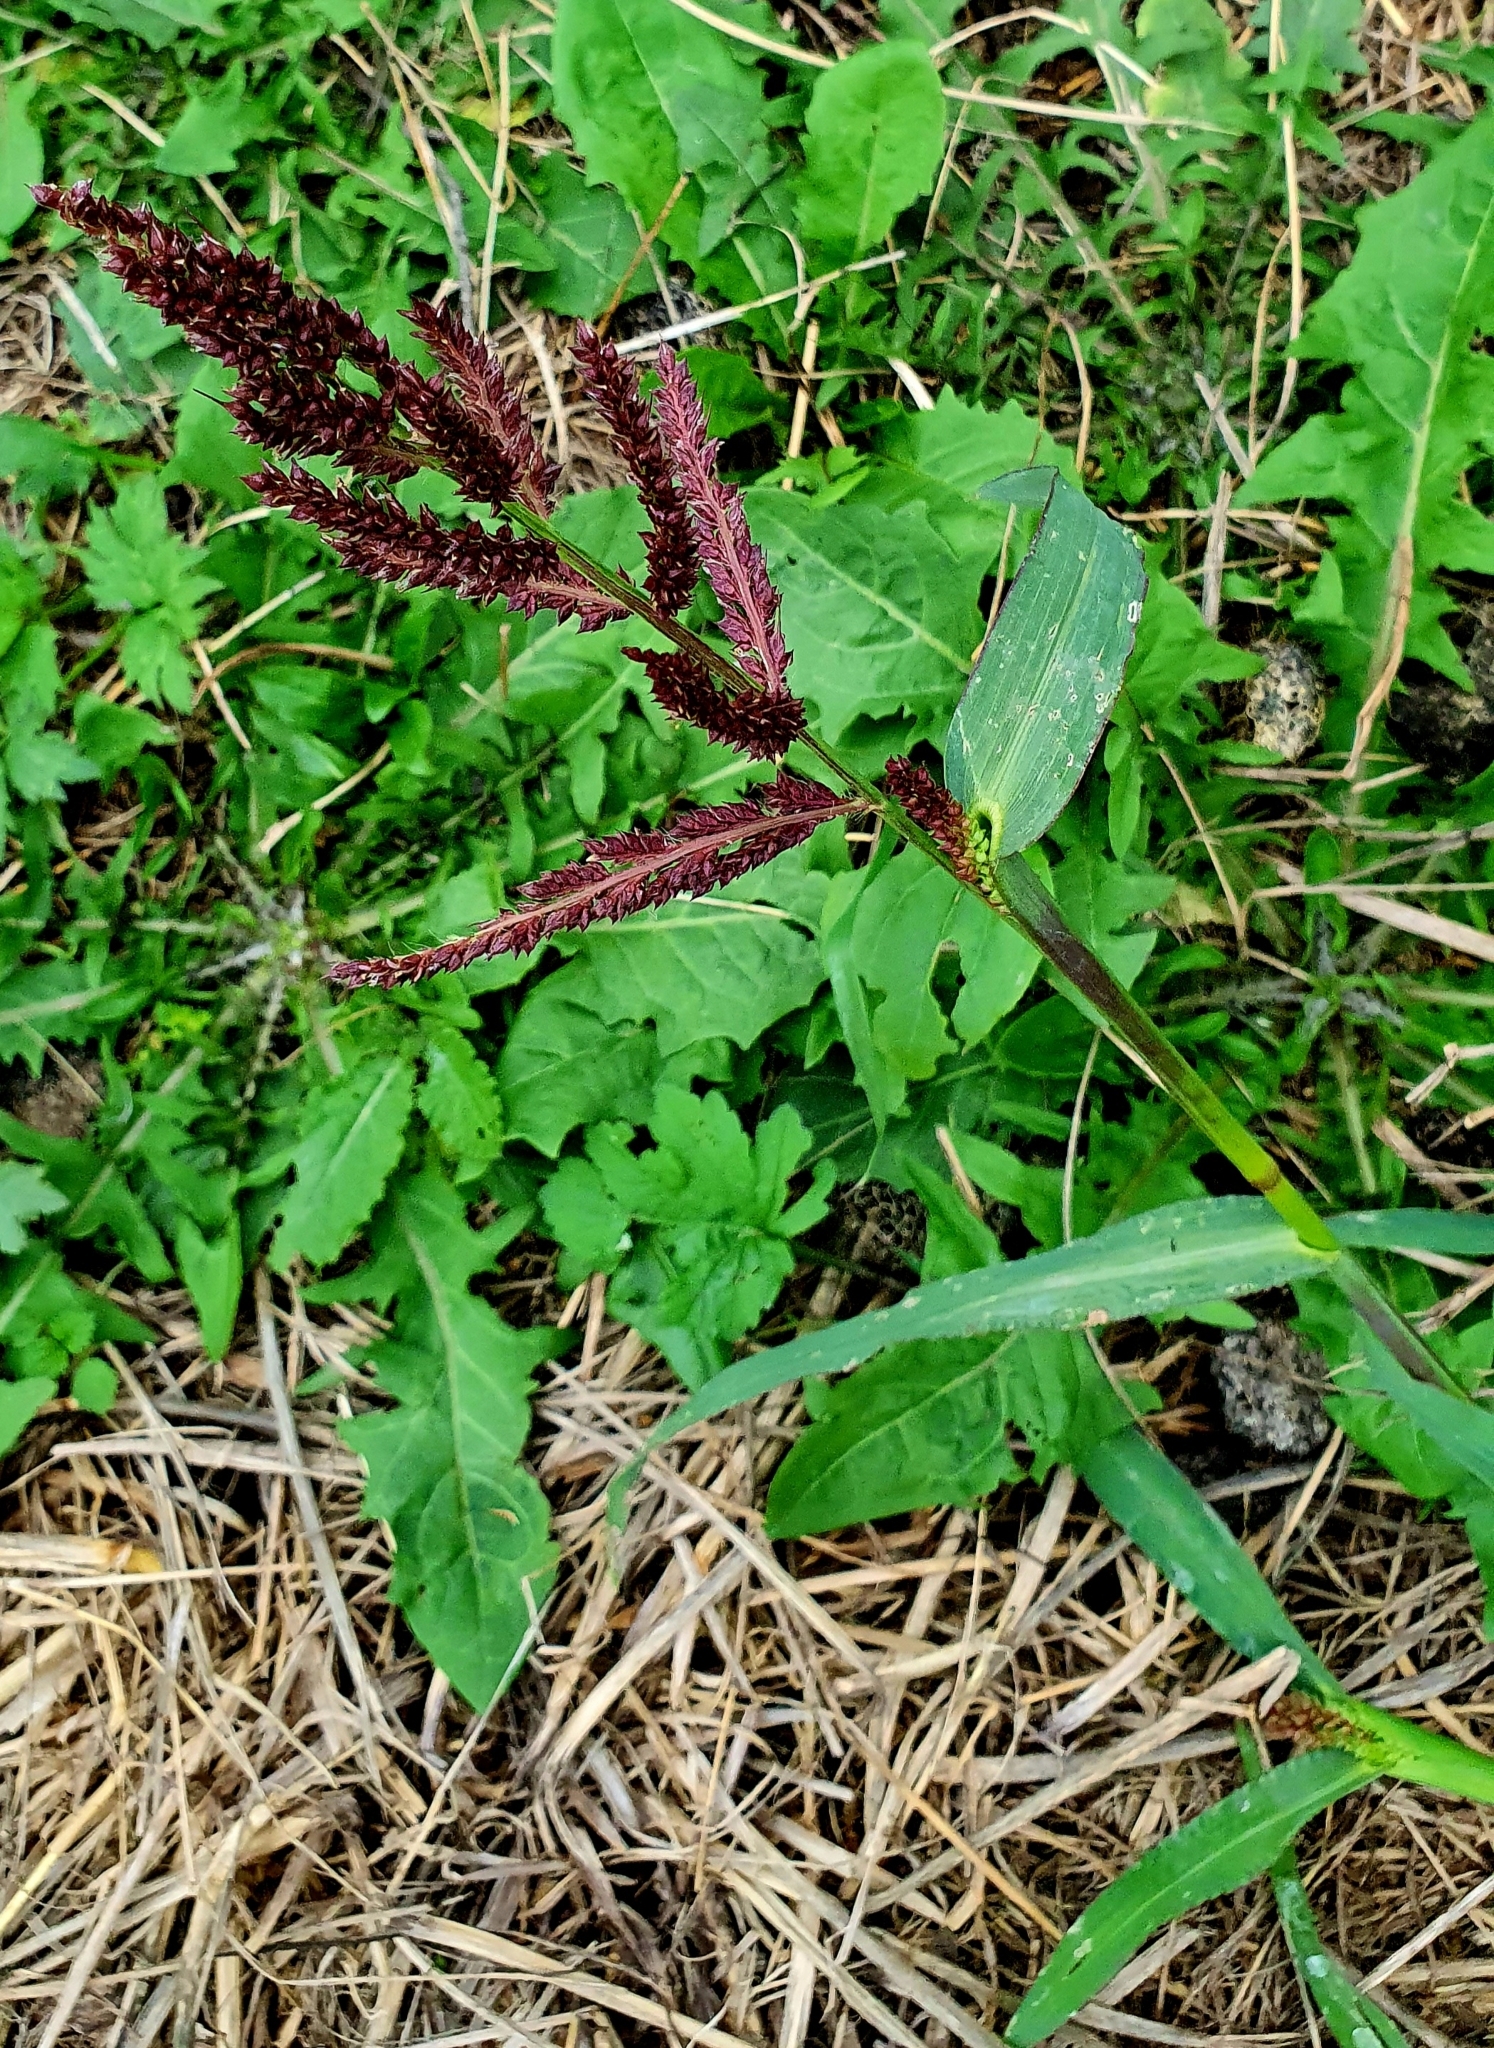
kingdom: Plantae
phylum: Tracheophyta
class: Liliopsida
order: Poales
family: Poaceae
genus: Echinochloa
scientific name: Echinochloa crus-galli
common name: Cockspur
